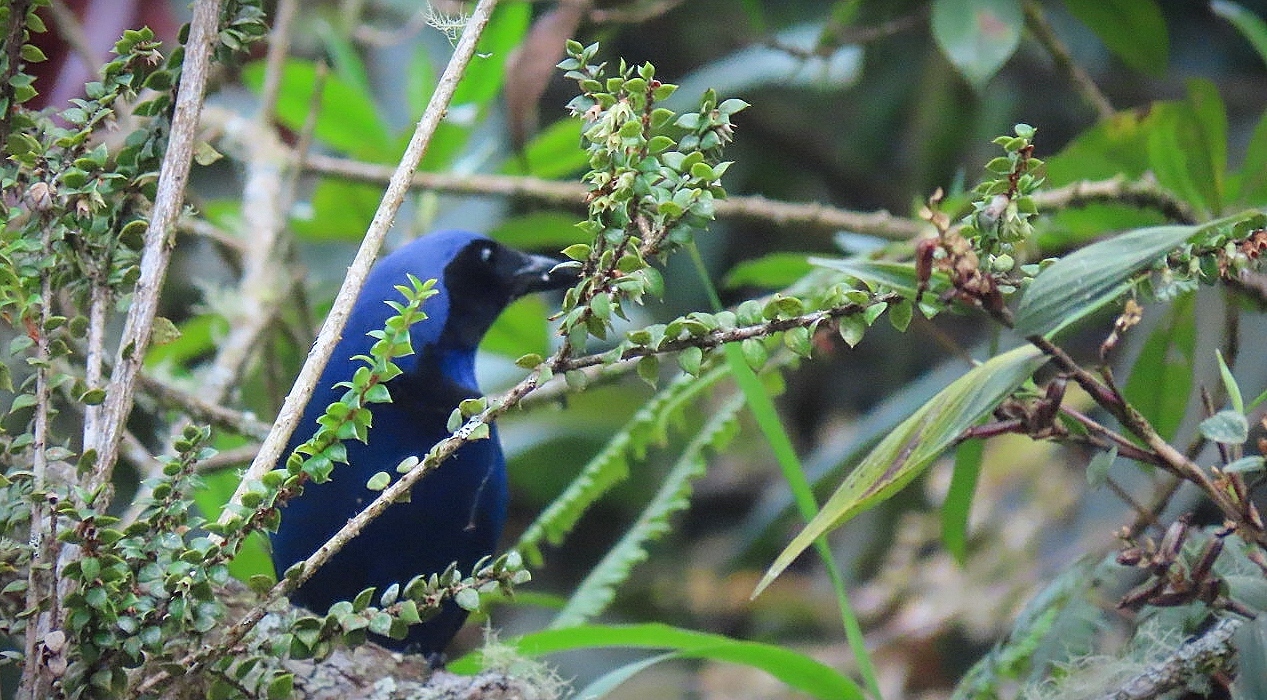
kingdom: Animalia
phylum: Chordata
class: Aves
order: Passeriformes
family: Corvidae
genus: Cyanolyca
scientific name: Cyanolyca armillata
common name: Black-collared jay
